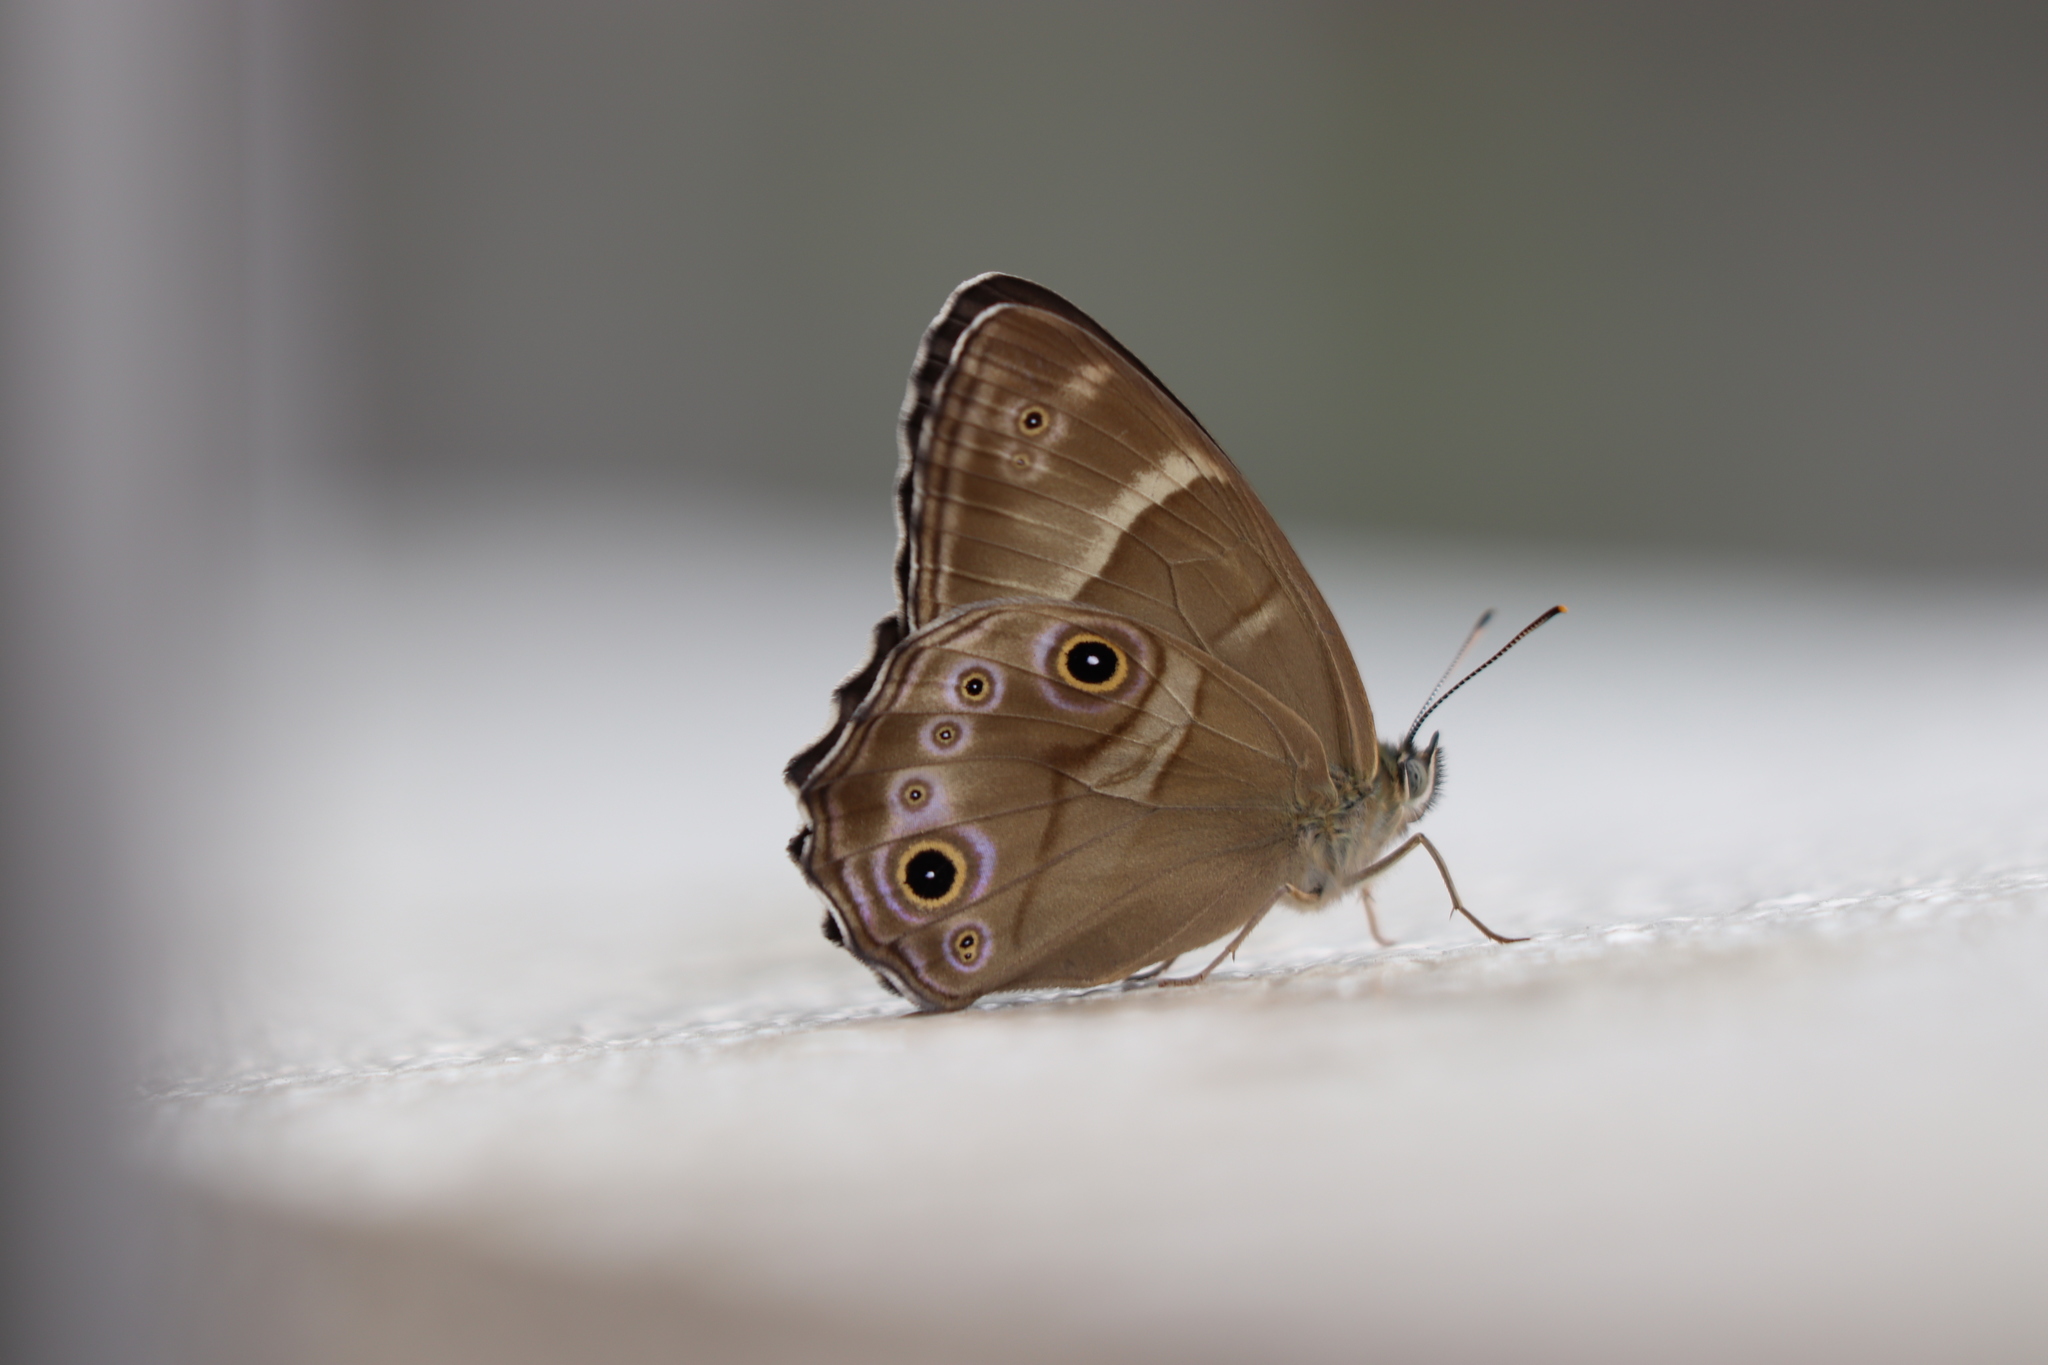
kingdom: Animalia
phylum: Arthropoda
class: Insecta
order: Lepidoptera
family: Nymphalidae
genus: Lethe
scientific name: Lethe sicelis
